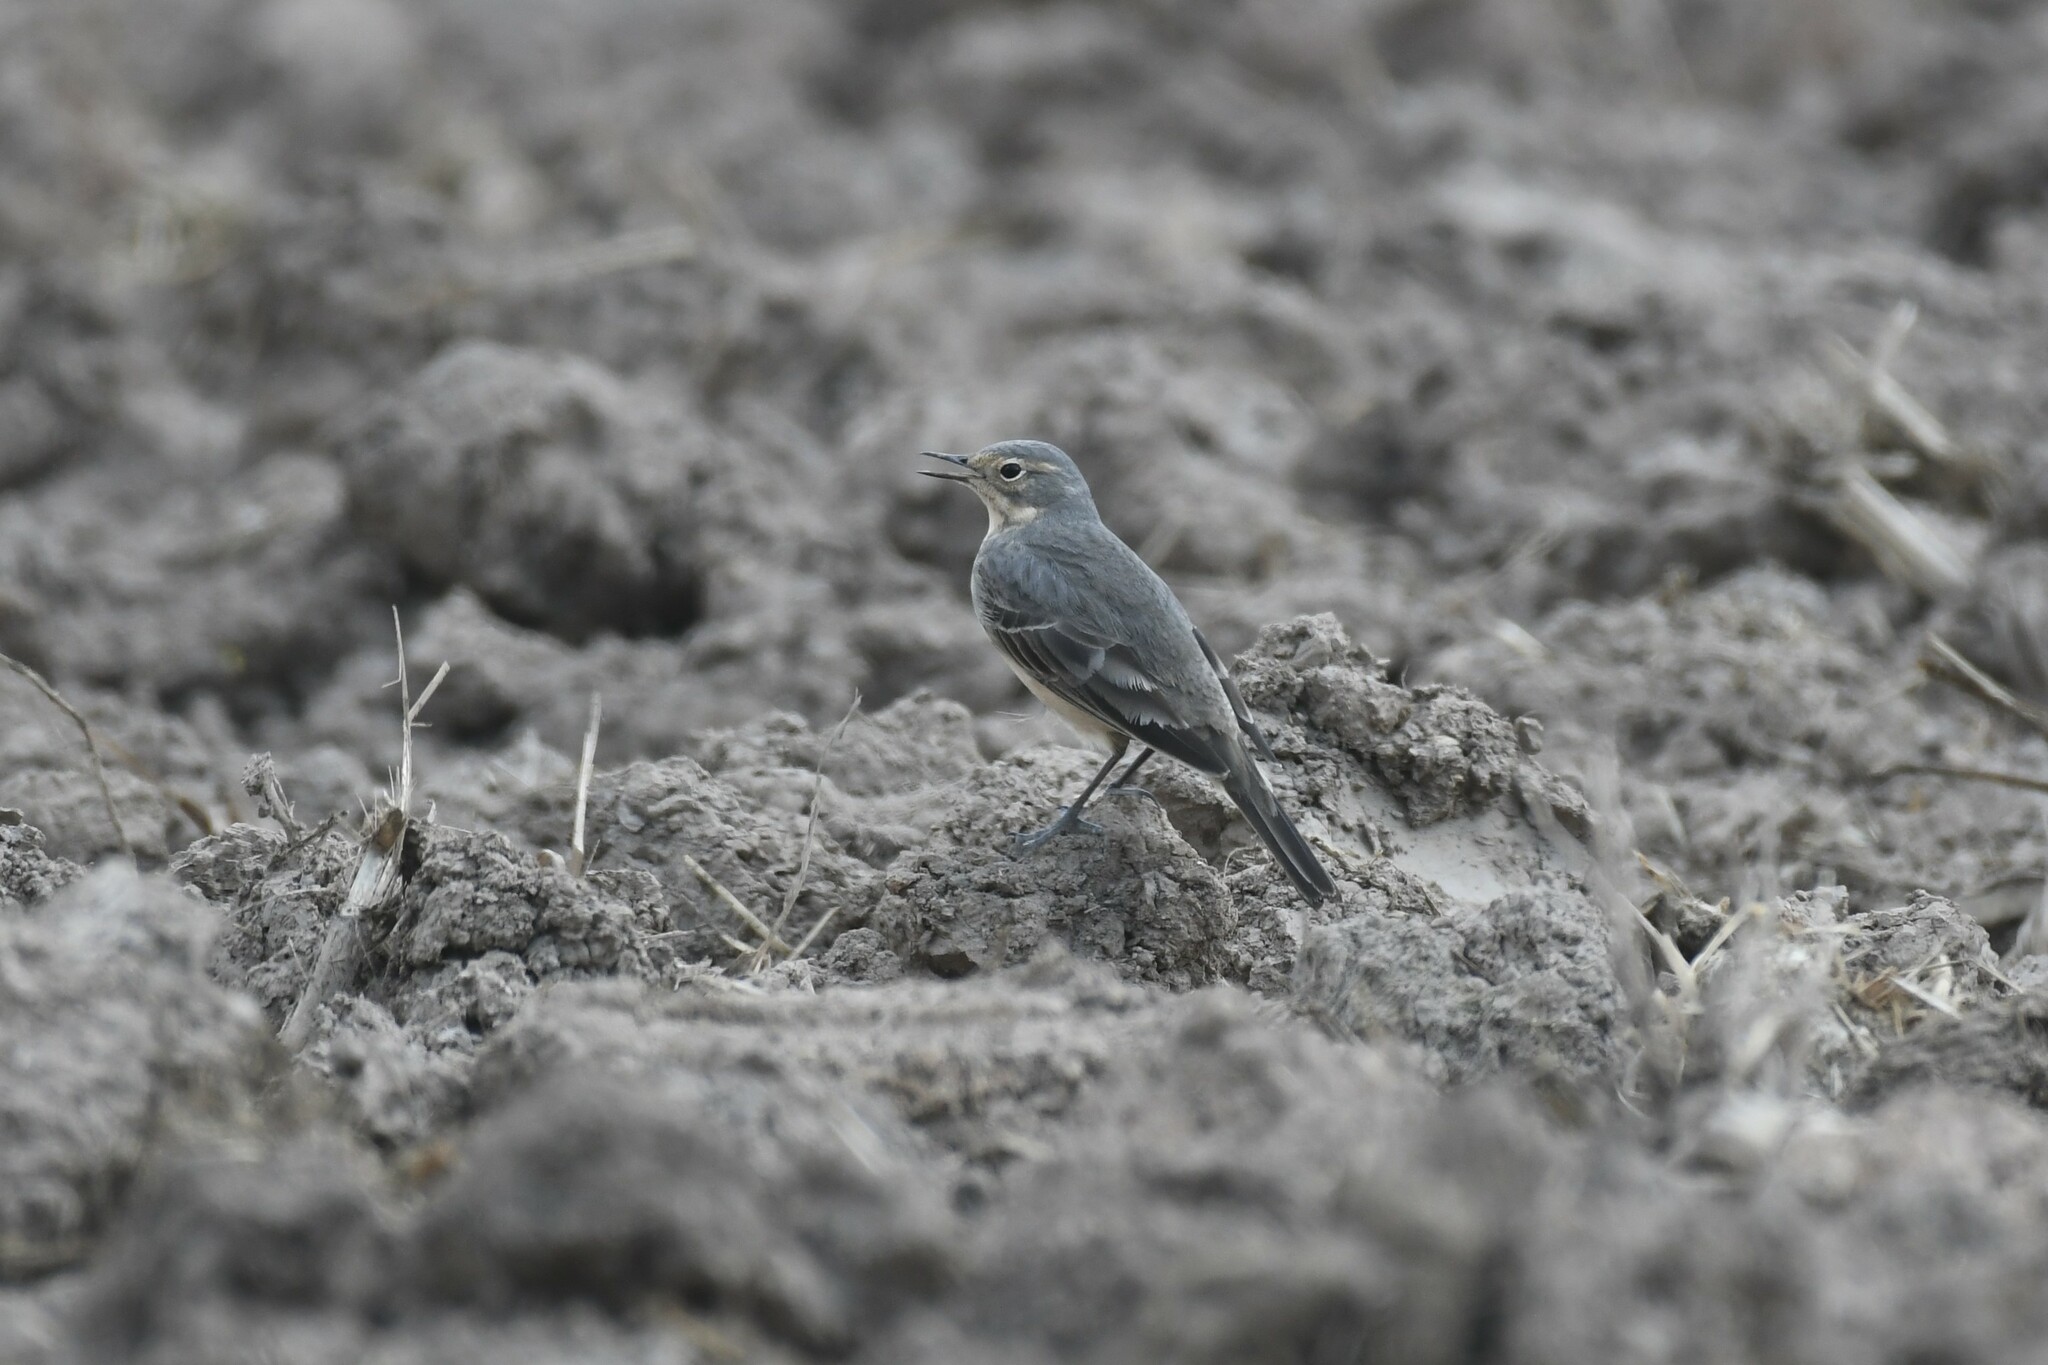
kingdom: Animalia
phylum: Chordata
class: Aves
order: Passeriformes
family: Motacillidae
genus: Anthus
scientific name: Anthus rubescens
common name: Buff-bellied pipit
